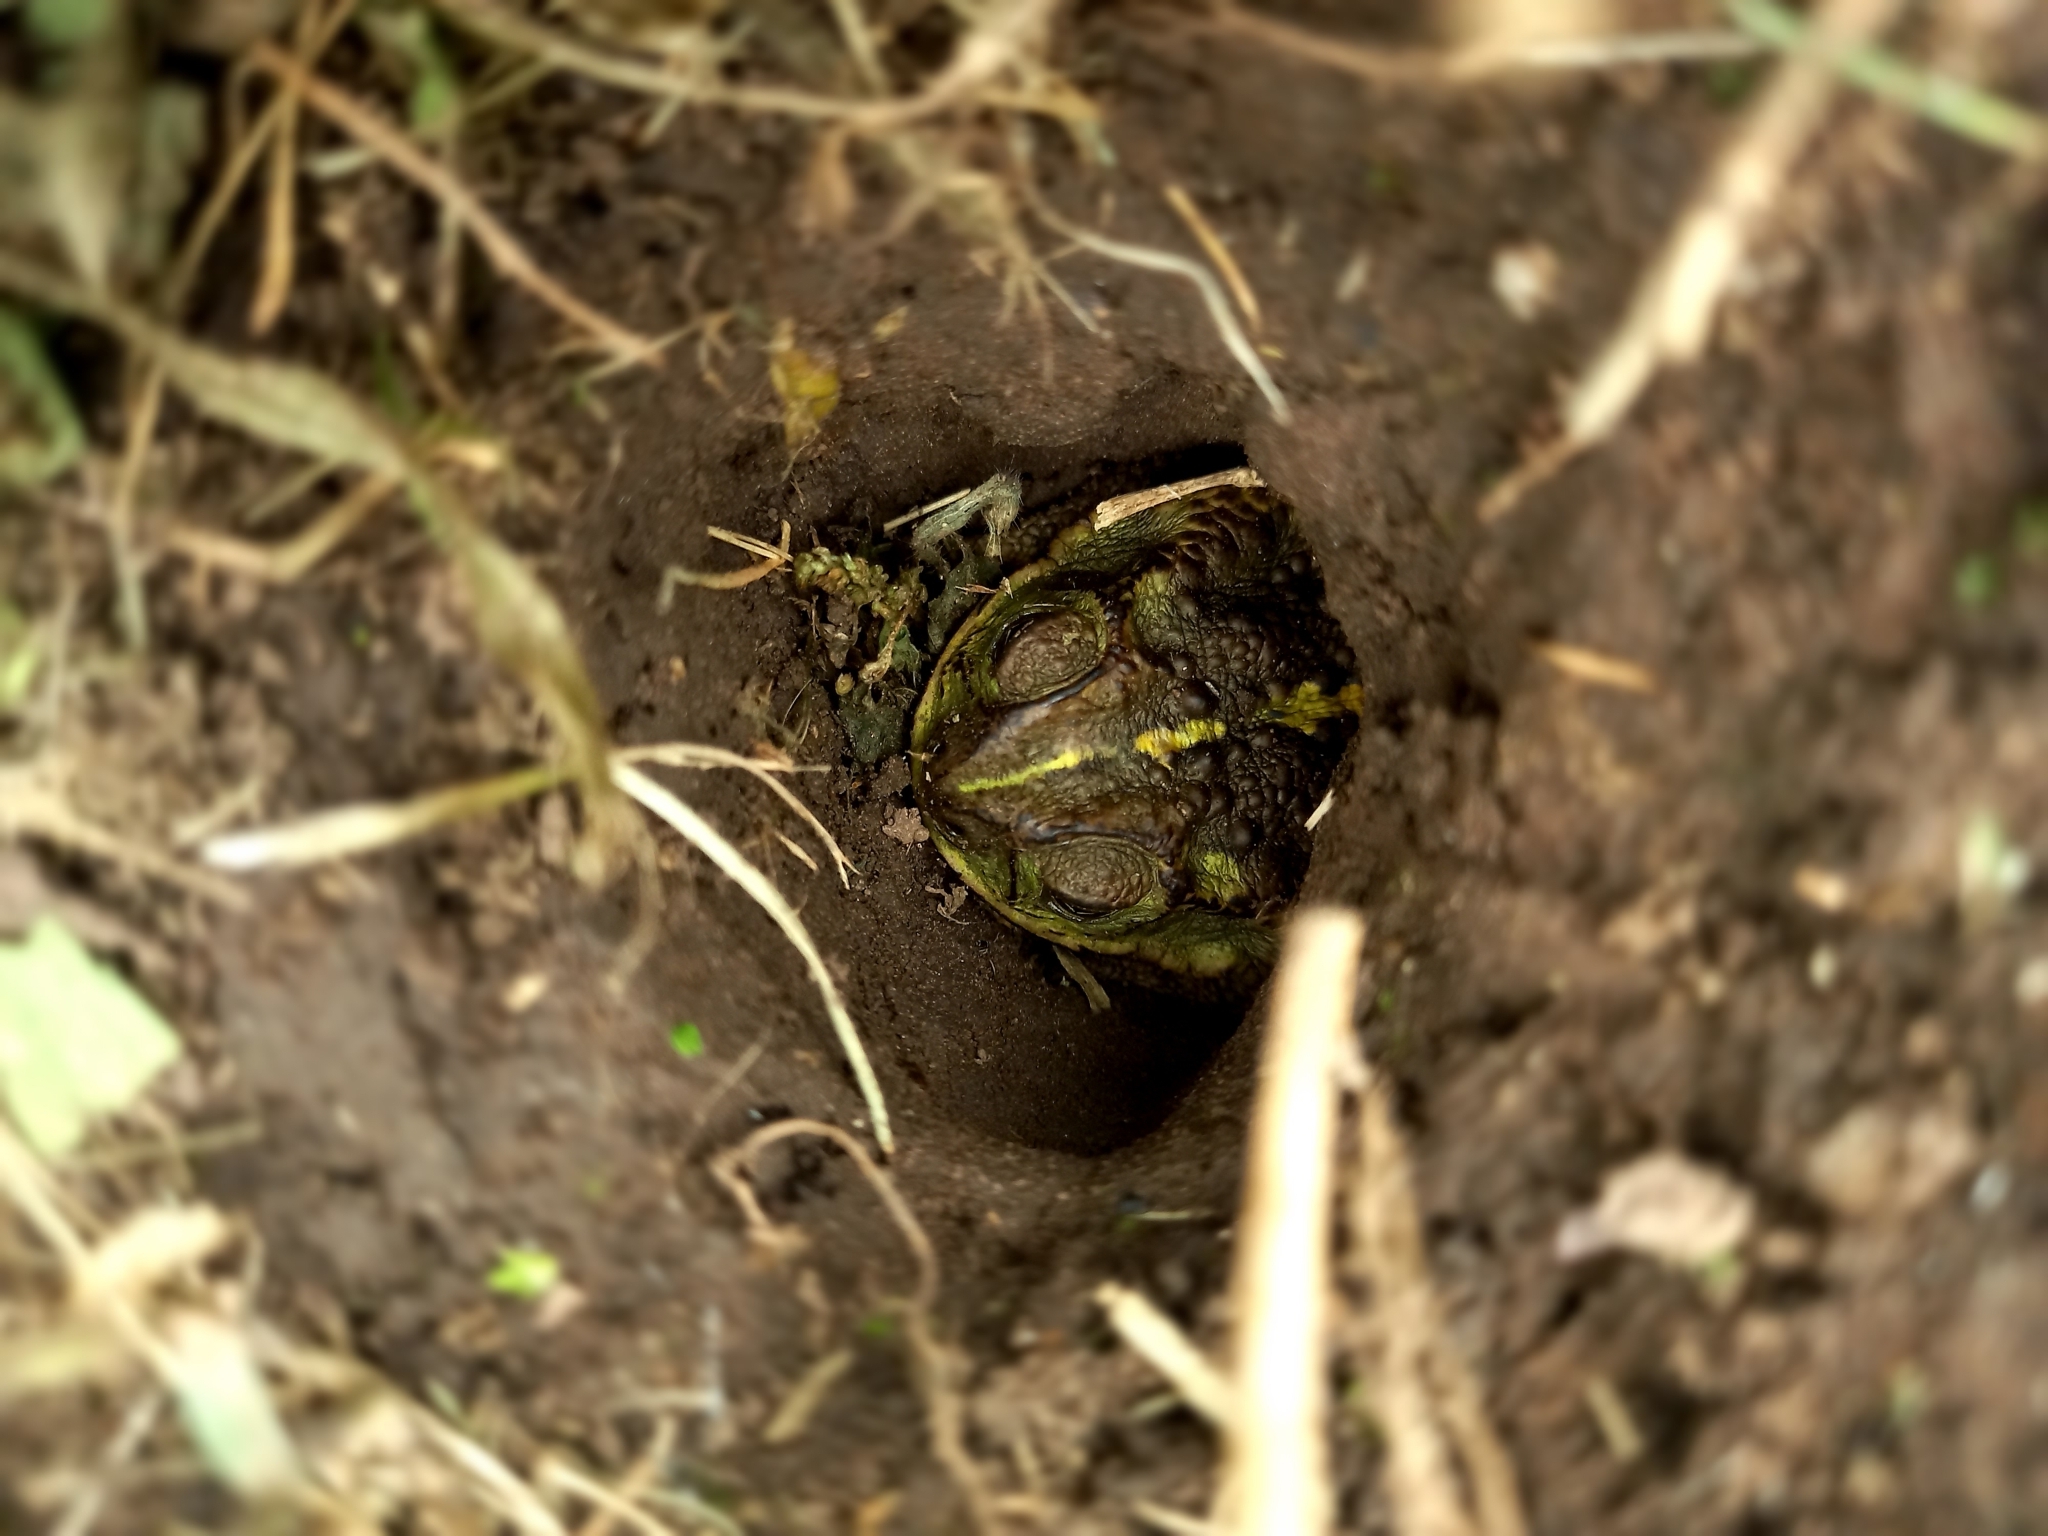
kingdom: Animalia
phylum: Chordata
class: Amphibia
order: Anura
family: Bufonidae
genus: Rhinella
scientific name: Rhinella dorbignyi
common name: D´orbigny’s toad
